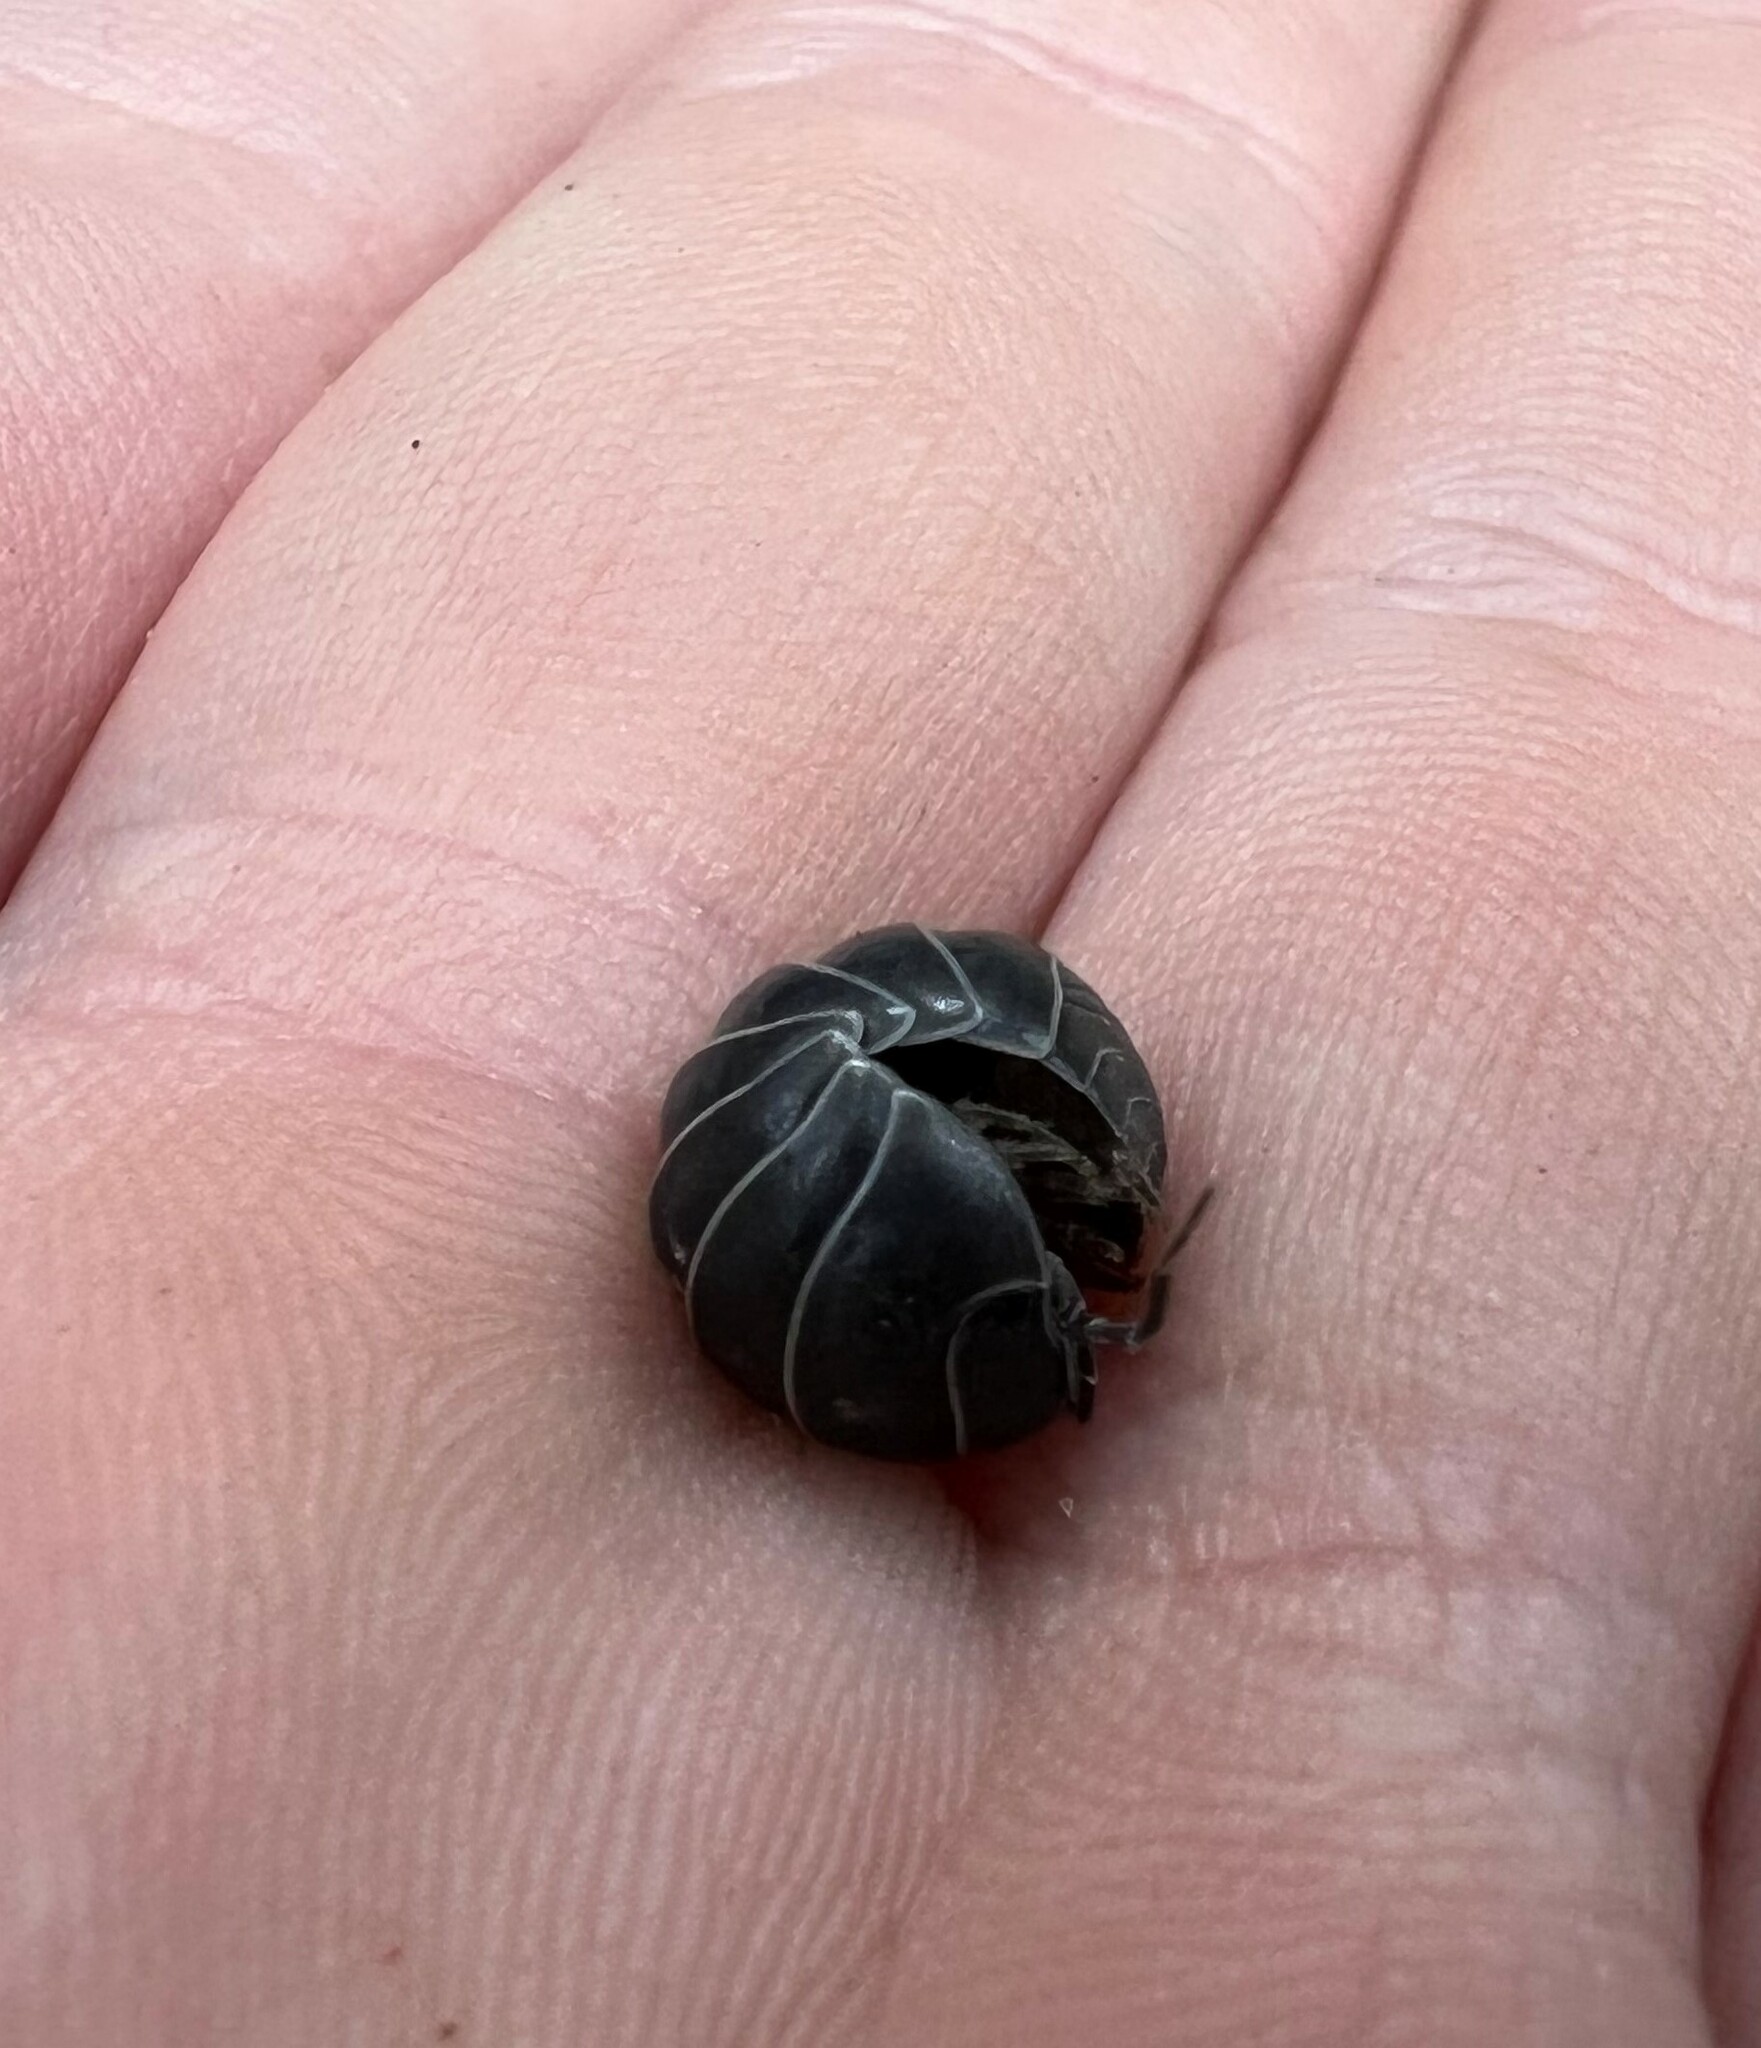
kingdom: Animalia
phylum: Arthropoda
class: Malacostraca
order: Isopoda
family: Armadillidiidae
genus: Armadillidium
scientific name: Armadillidium vulgare
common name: Common pill woodlouse
